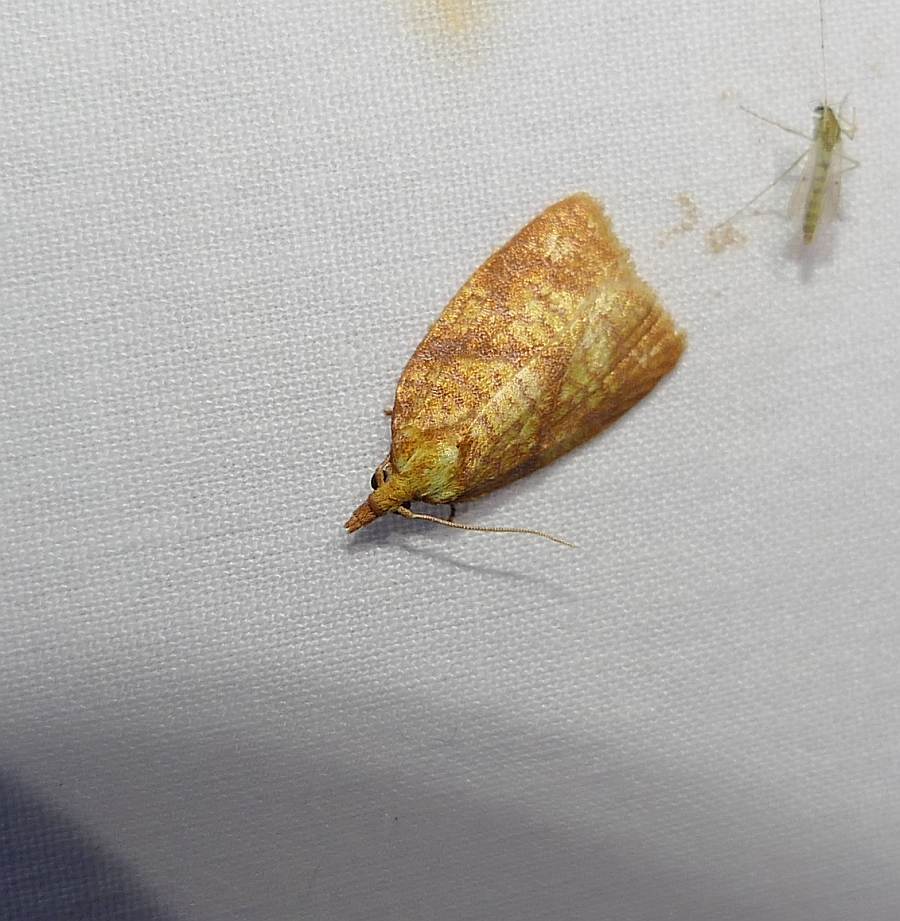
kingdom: Animalia
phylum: Arthropoda
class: Insecta
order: Lepidoptera
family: Tortricidae
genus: Cenopis
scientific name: Cenopis pettitana
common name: Maple-basswood leafroller moth
